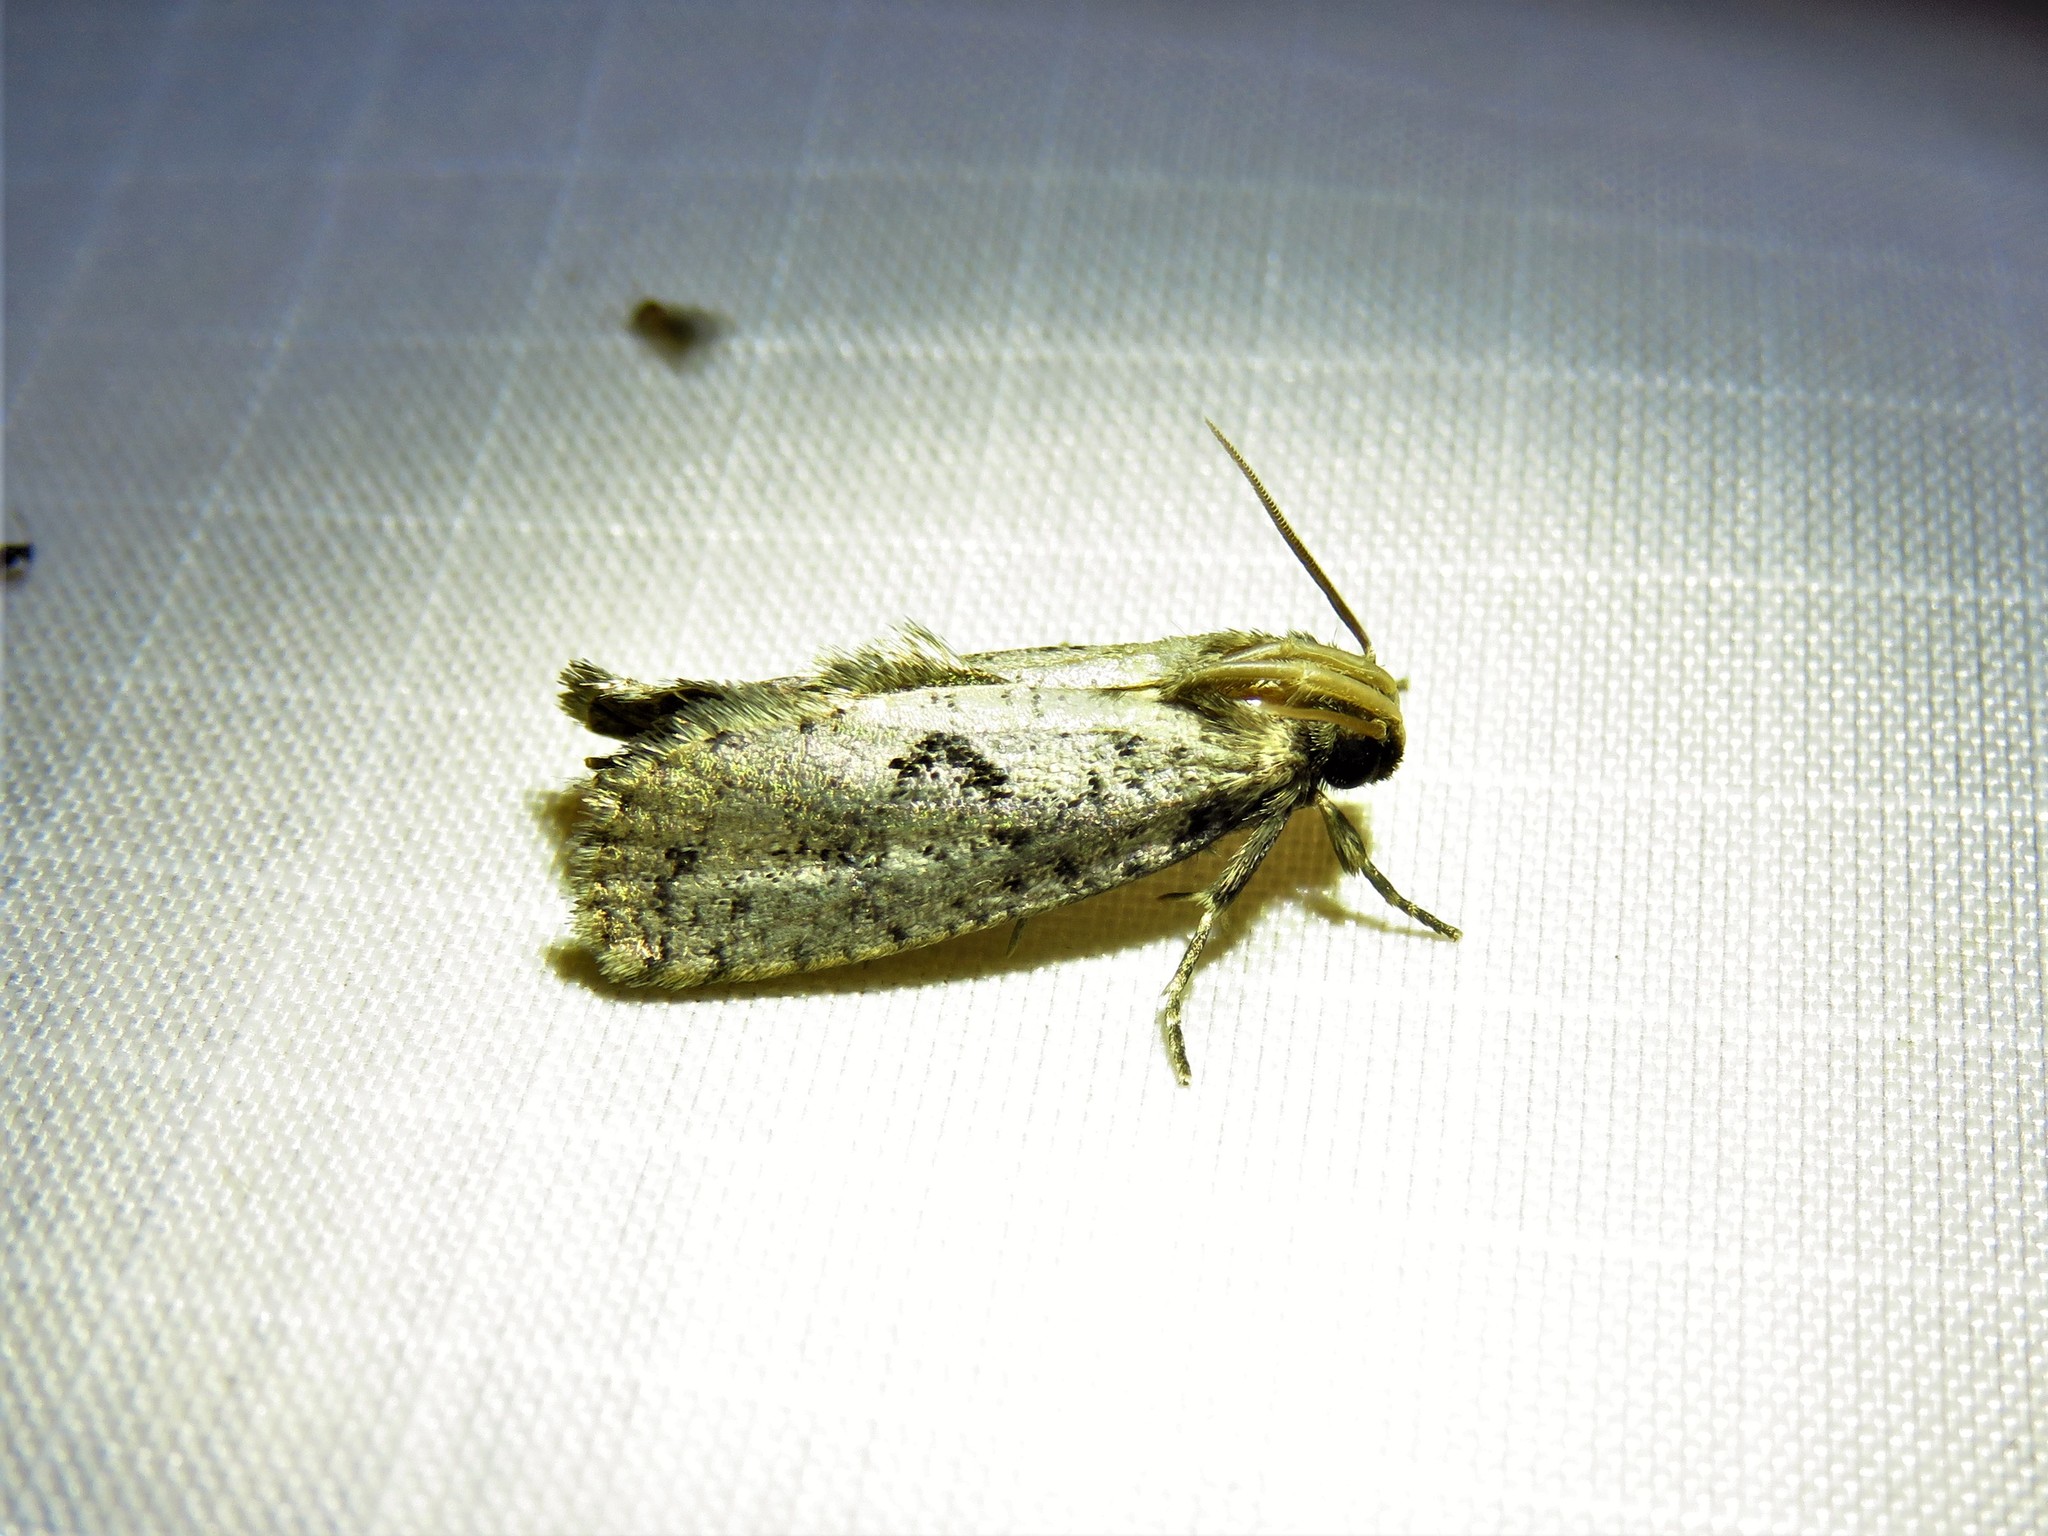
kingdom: Animalia
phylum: Arthropoda
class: Insecta
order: Lepidoptera
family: Tineidae
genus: Acrolophus
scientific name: Acrolophus popeanella
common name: Clemens' grass tubeworm moth
